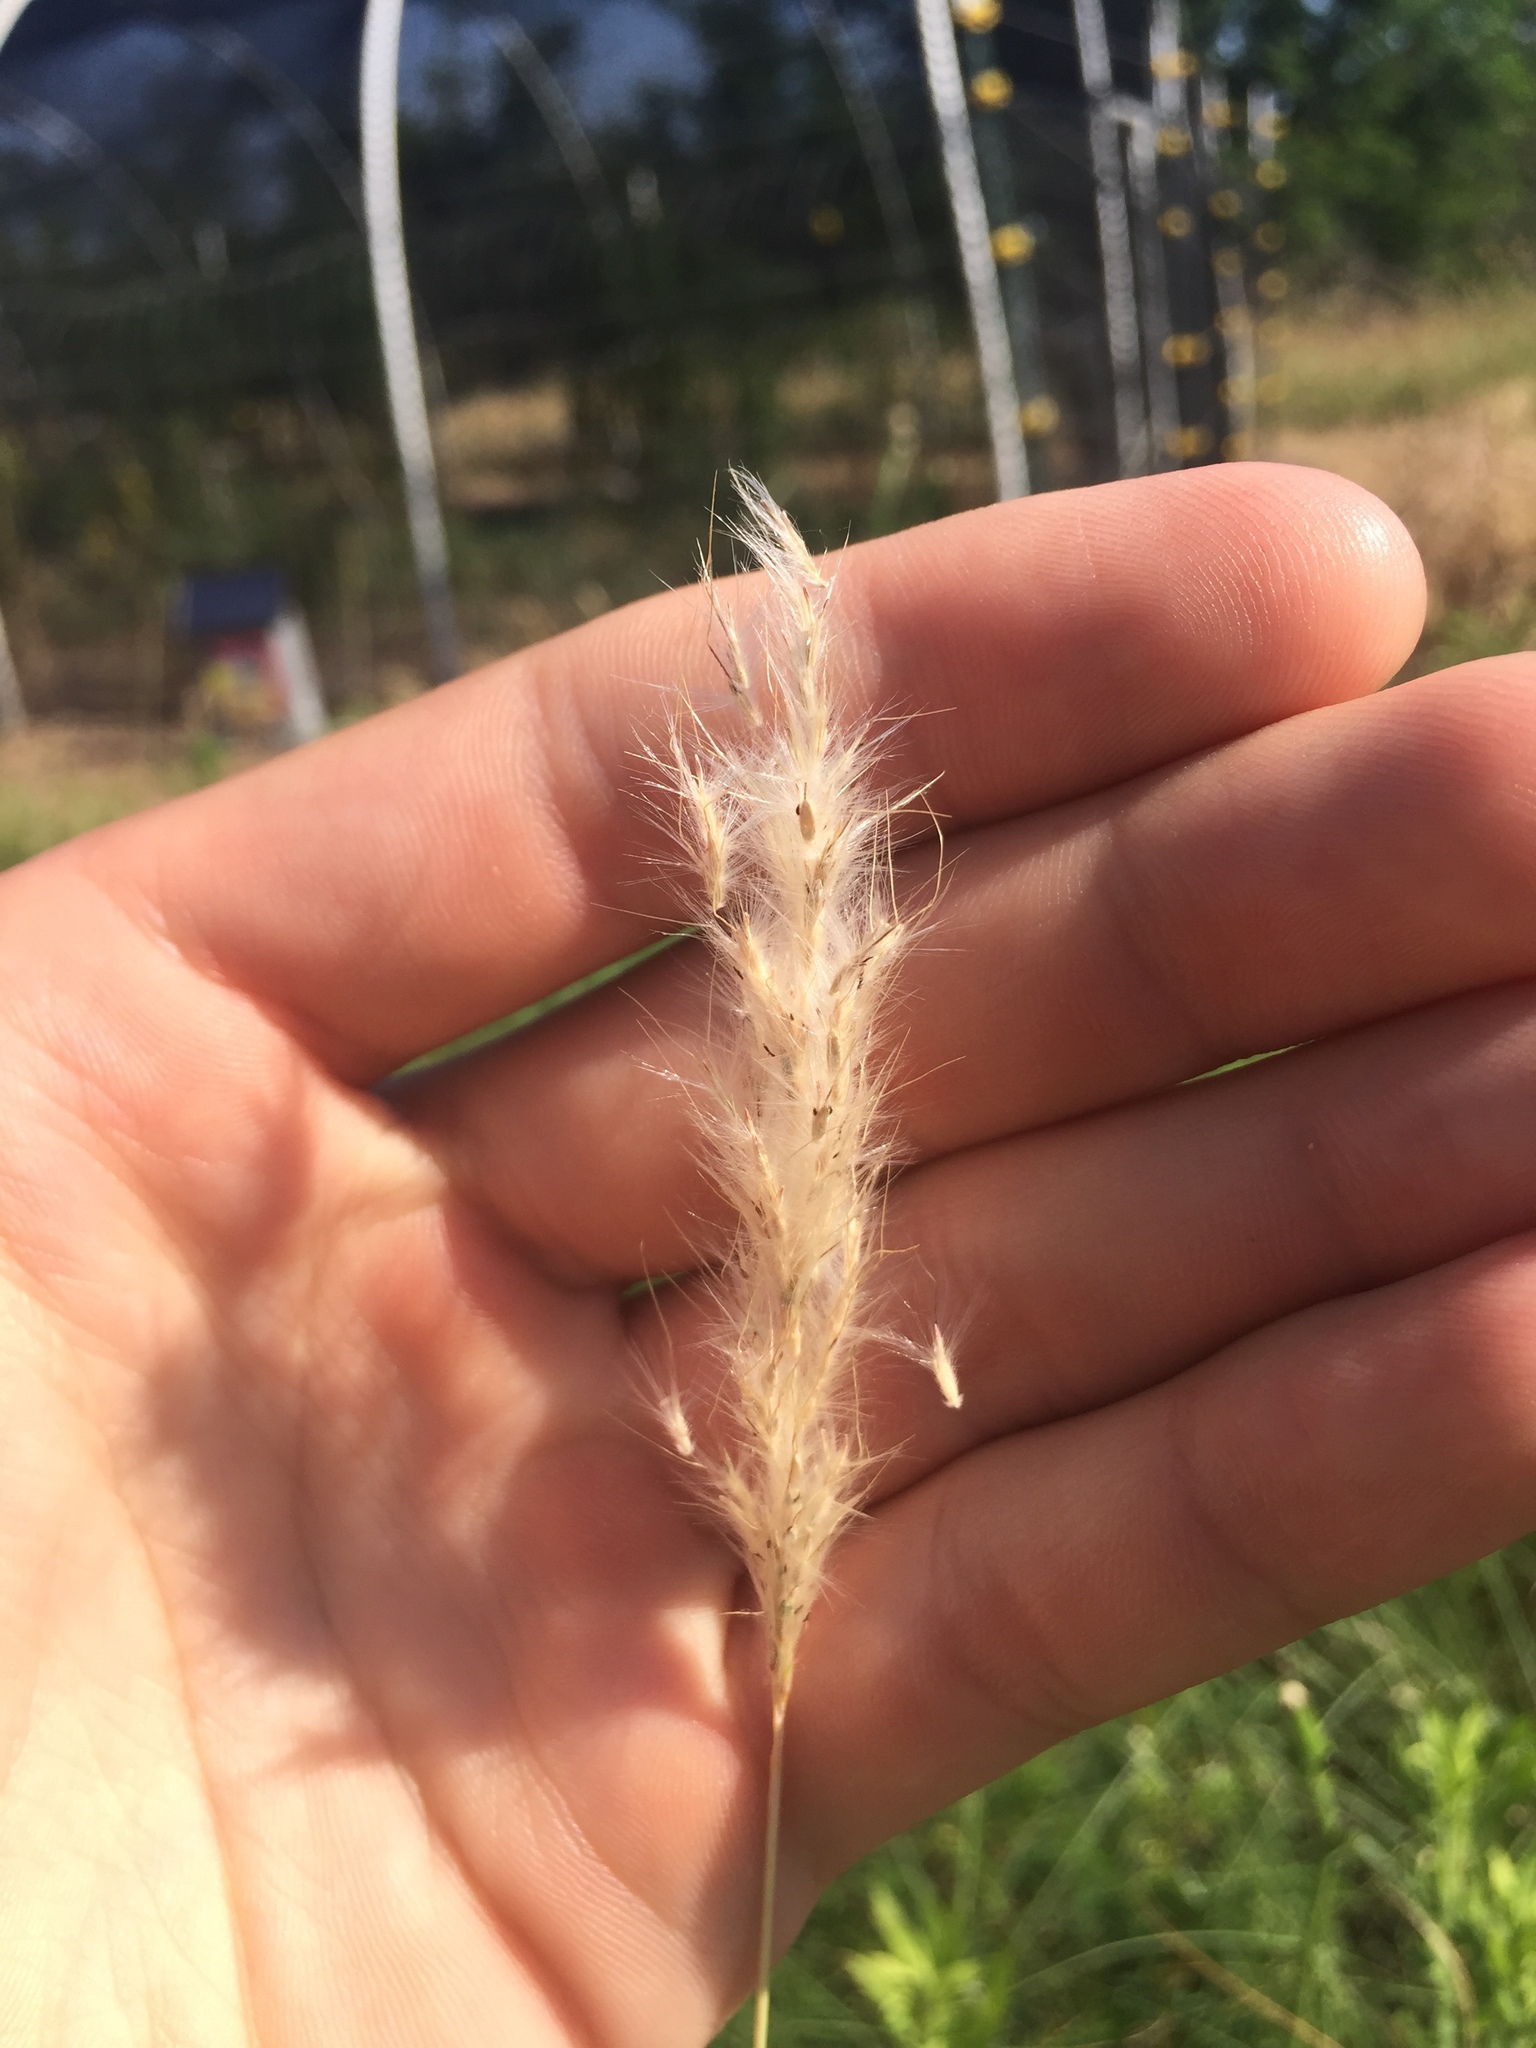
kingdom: Plantae
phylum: Tracheophyta
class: Liliopsida
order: Poales
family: Poaceae
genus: Bothriochloa
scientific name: Bothriochloa torreyana
